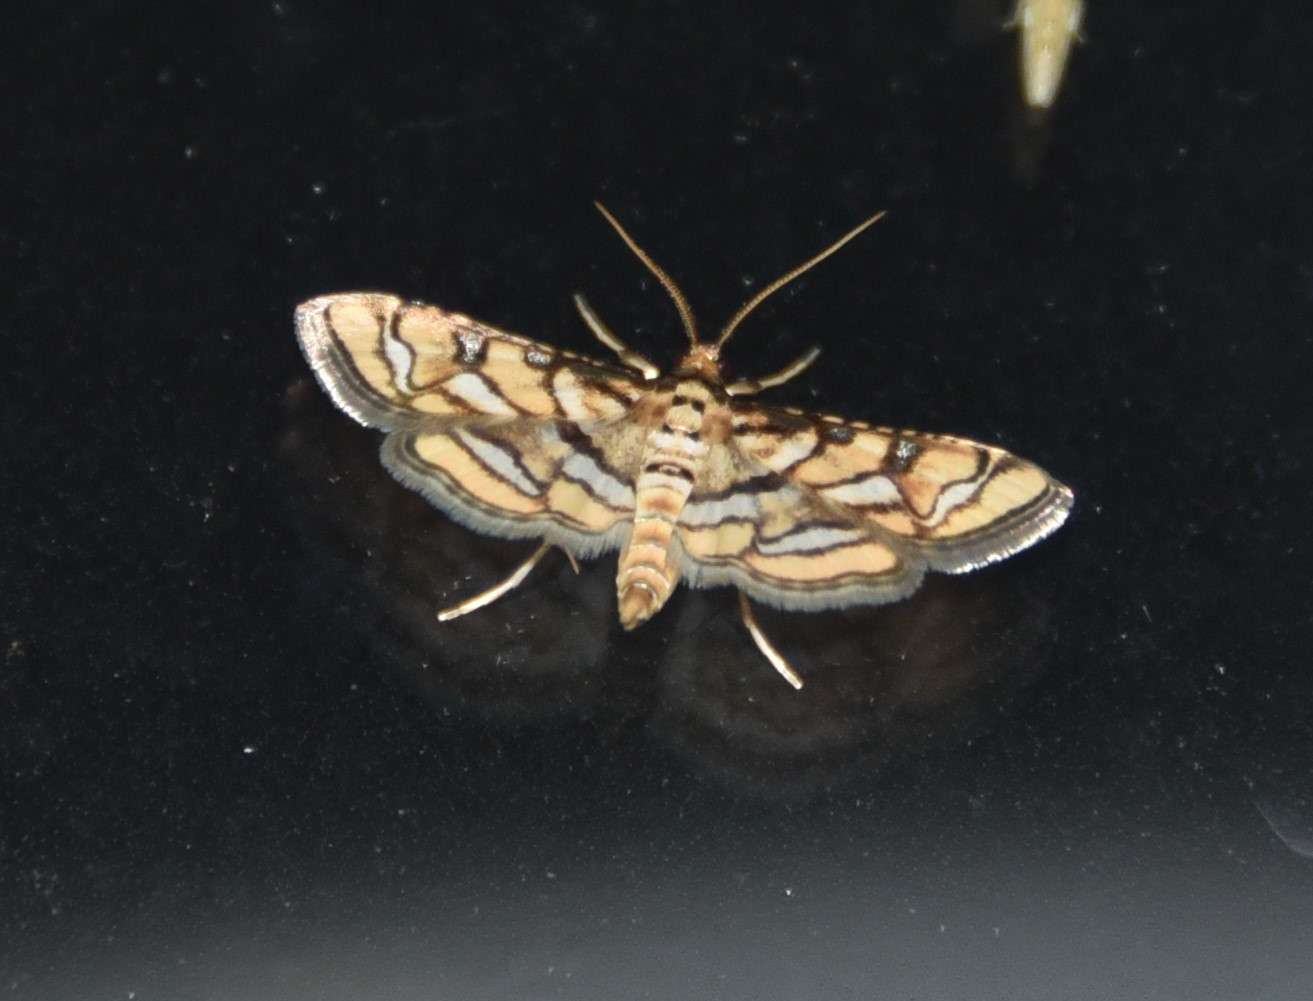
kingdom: Animalia
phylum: Arthropoda
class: Insecta
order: Lepidoptera
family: Crambidae
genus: Hileithia
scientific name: Hileithia magualis
